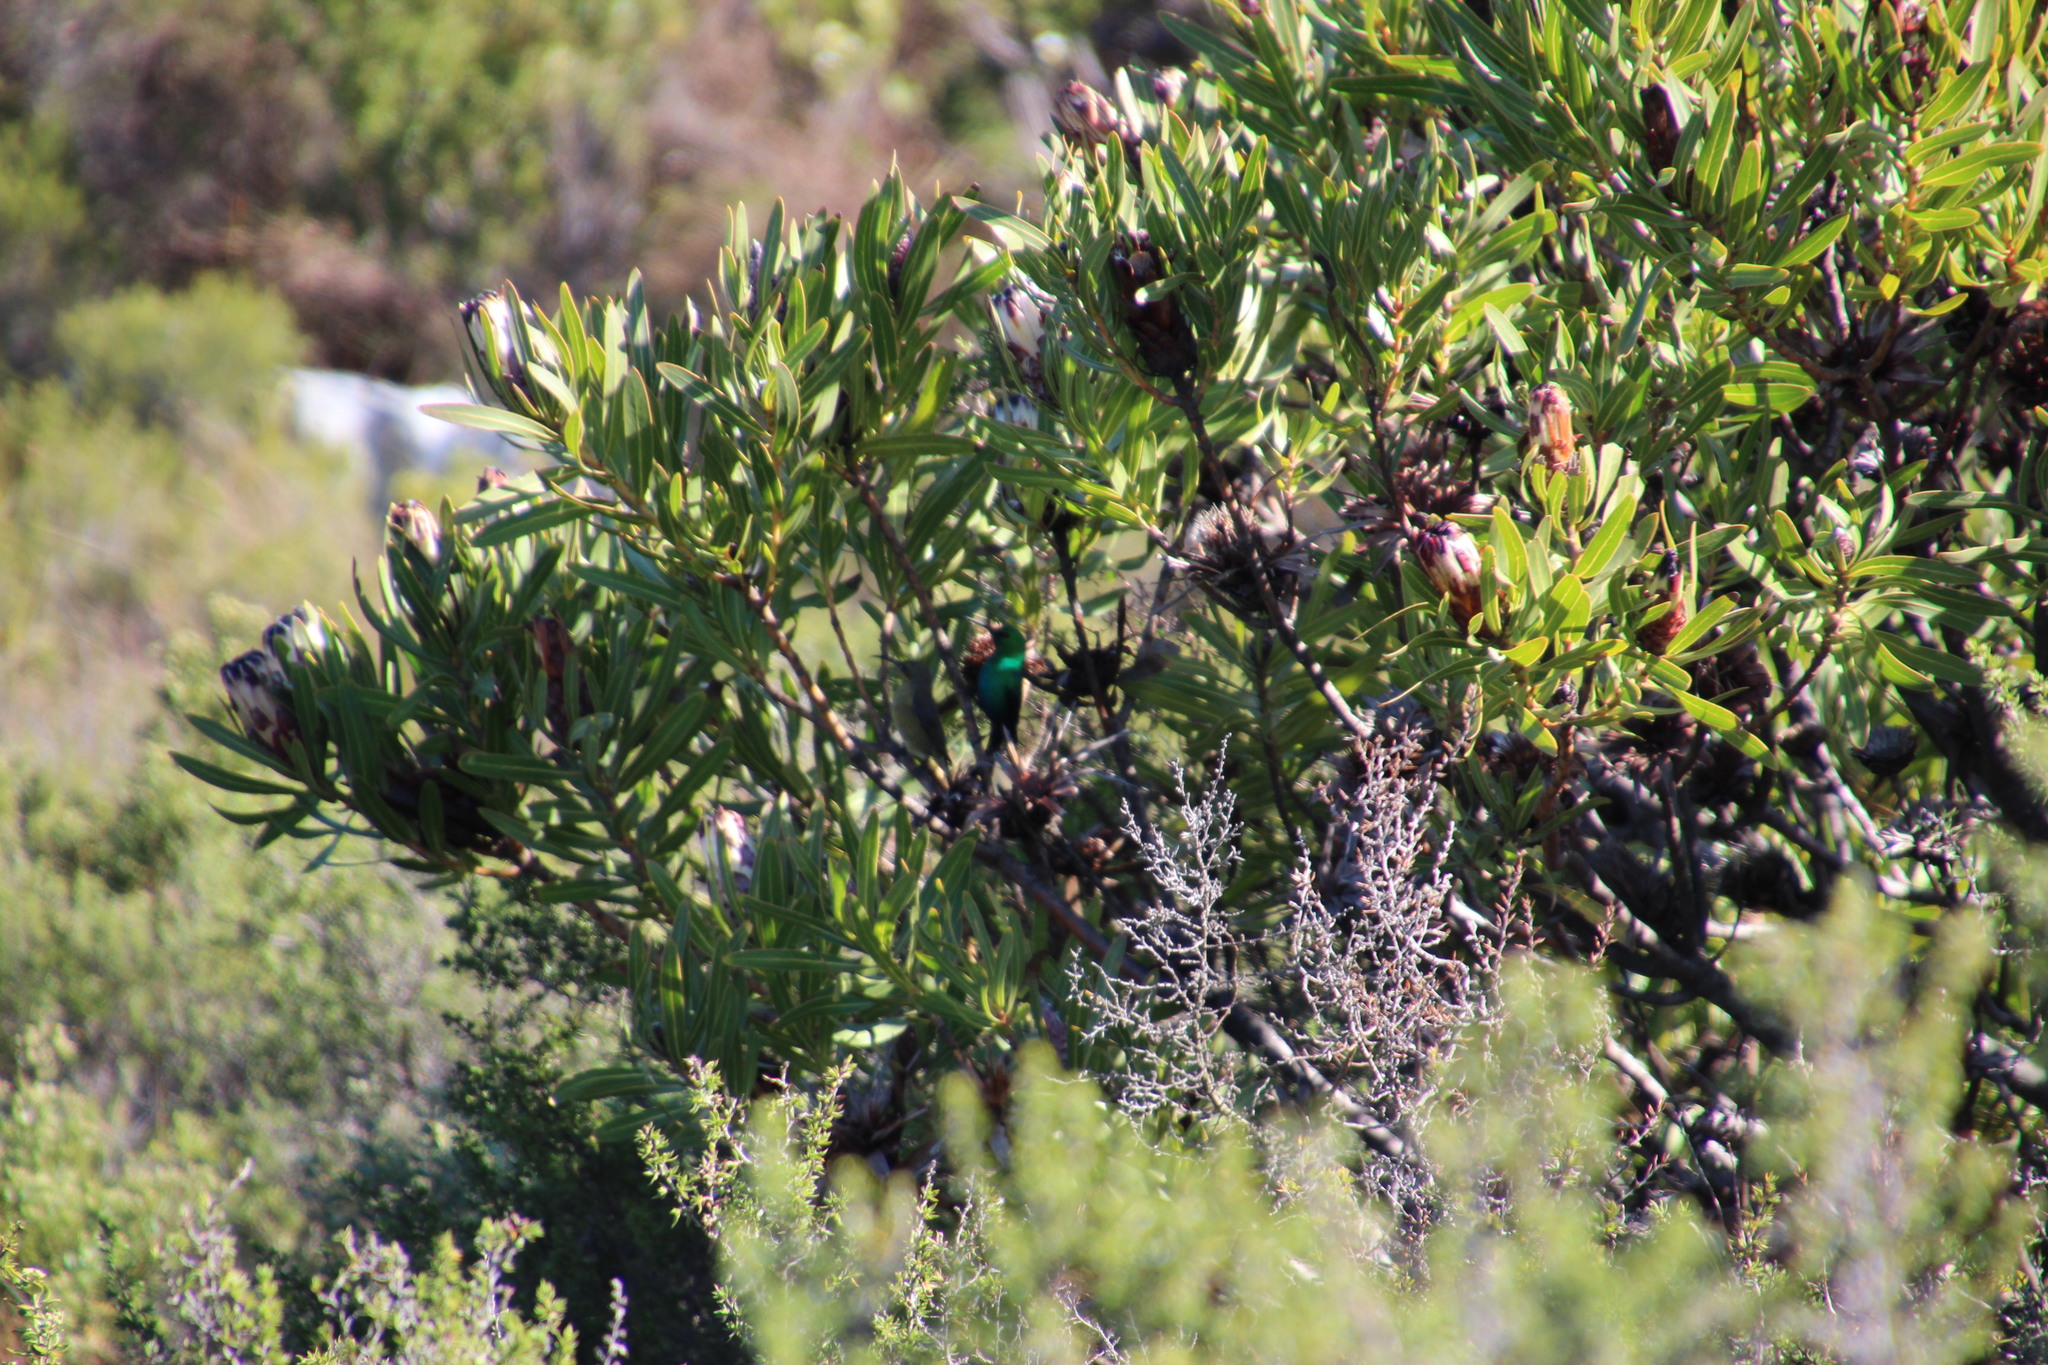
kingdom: Animalia
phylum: Chordata
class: Aves
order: Passeriformes
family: Nectariniidae
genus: Nectarinia
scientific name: Nectarinia famosa
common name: Malachite sunbird
